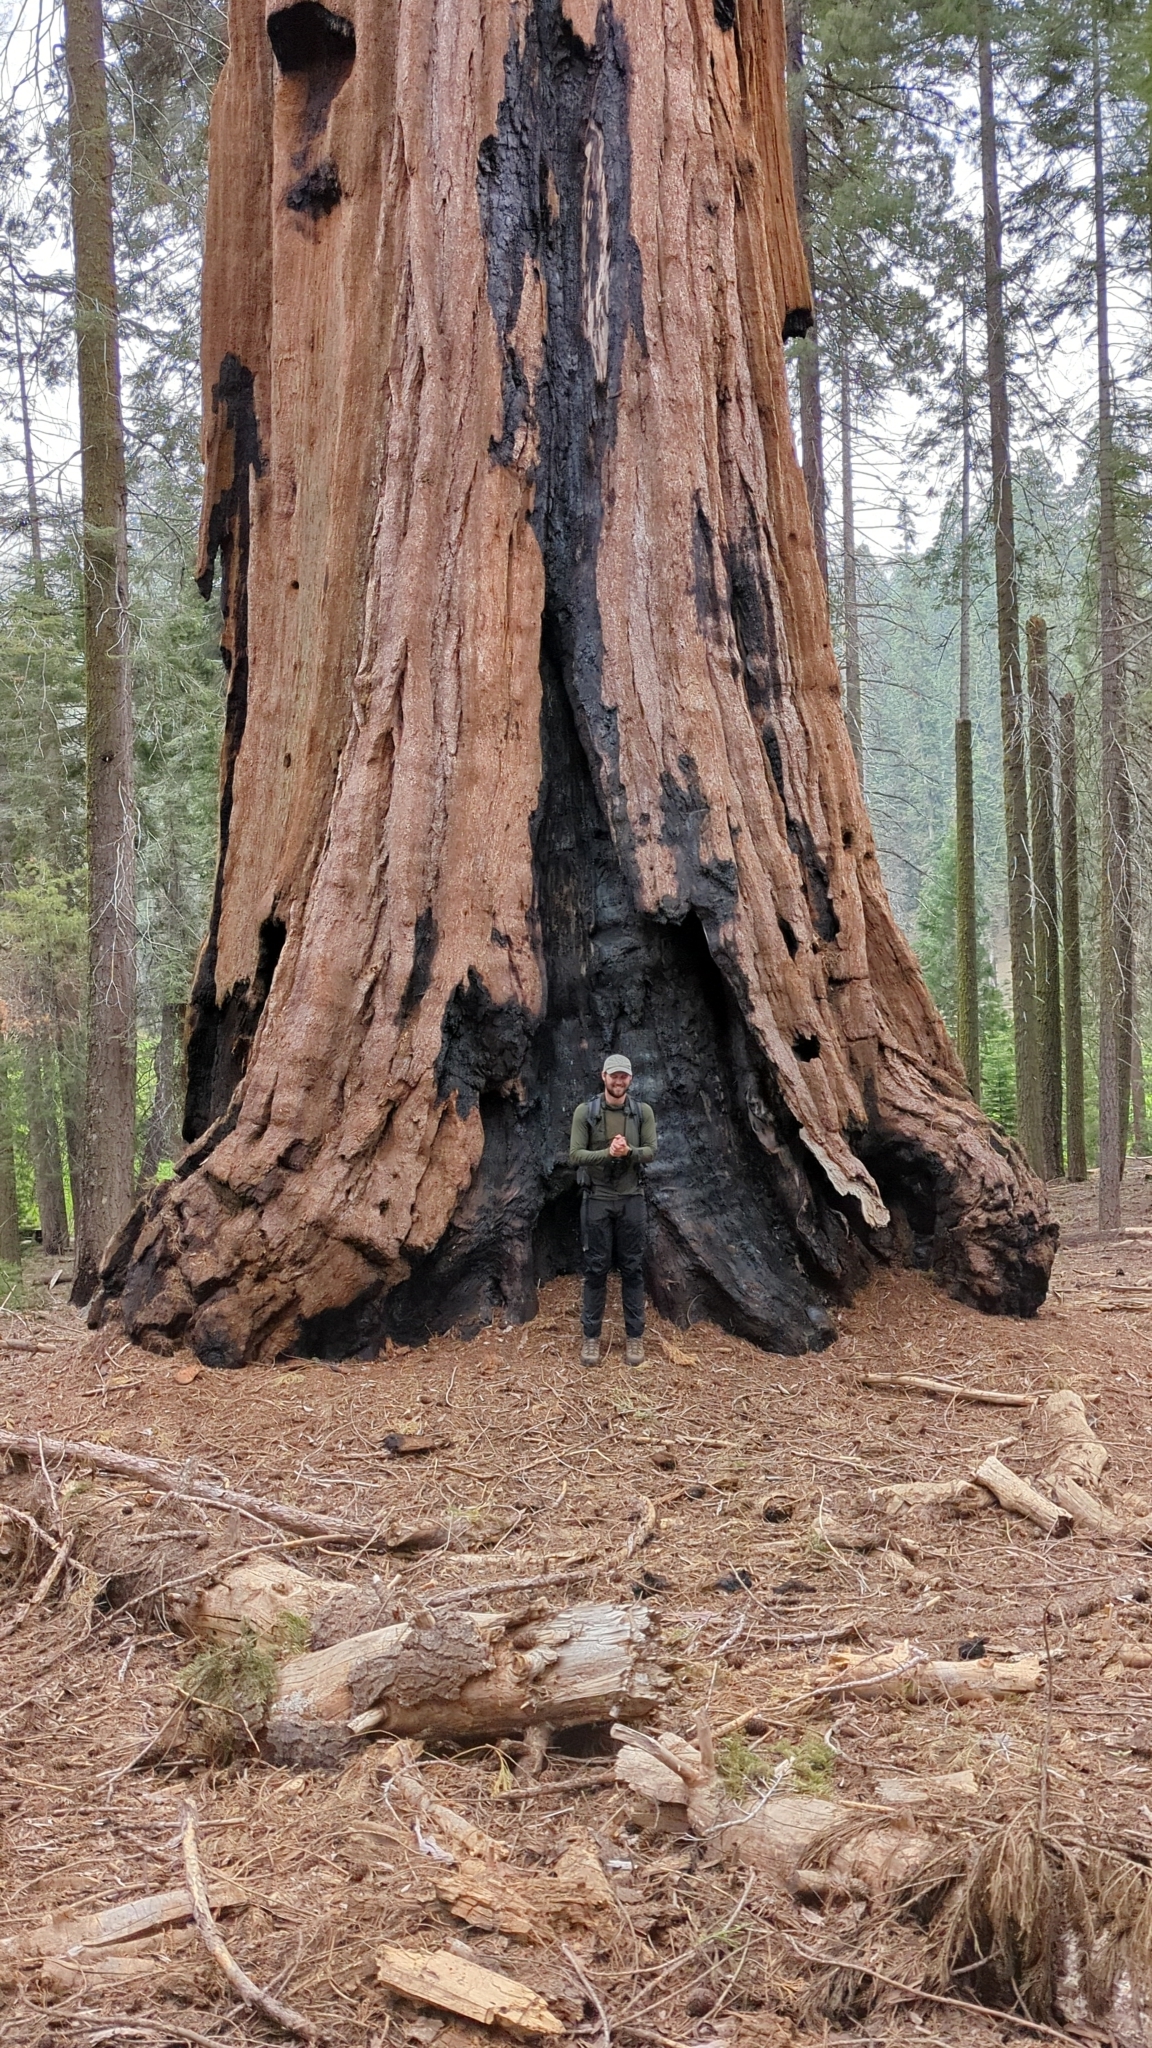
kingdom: Plantae
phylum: Tracheophyta
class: Pinopsida
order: Pinales
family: Cupressaceae
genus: Sequoiadendron
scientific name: Sequoiadendron giganteum
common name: Wellingtonia
